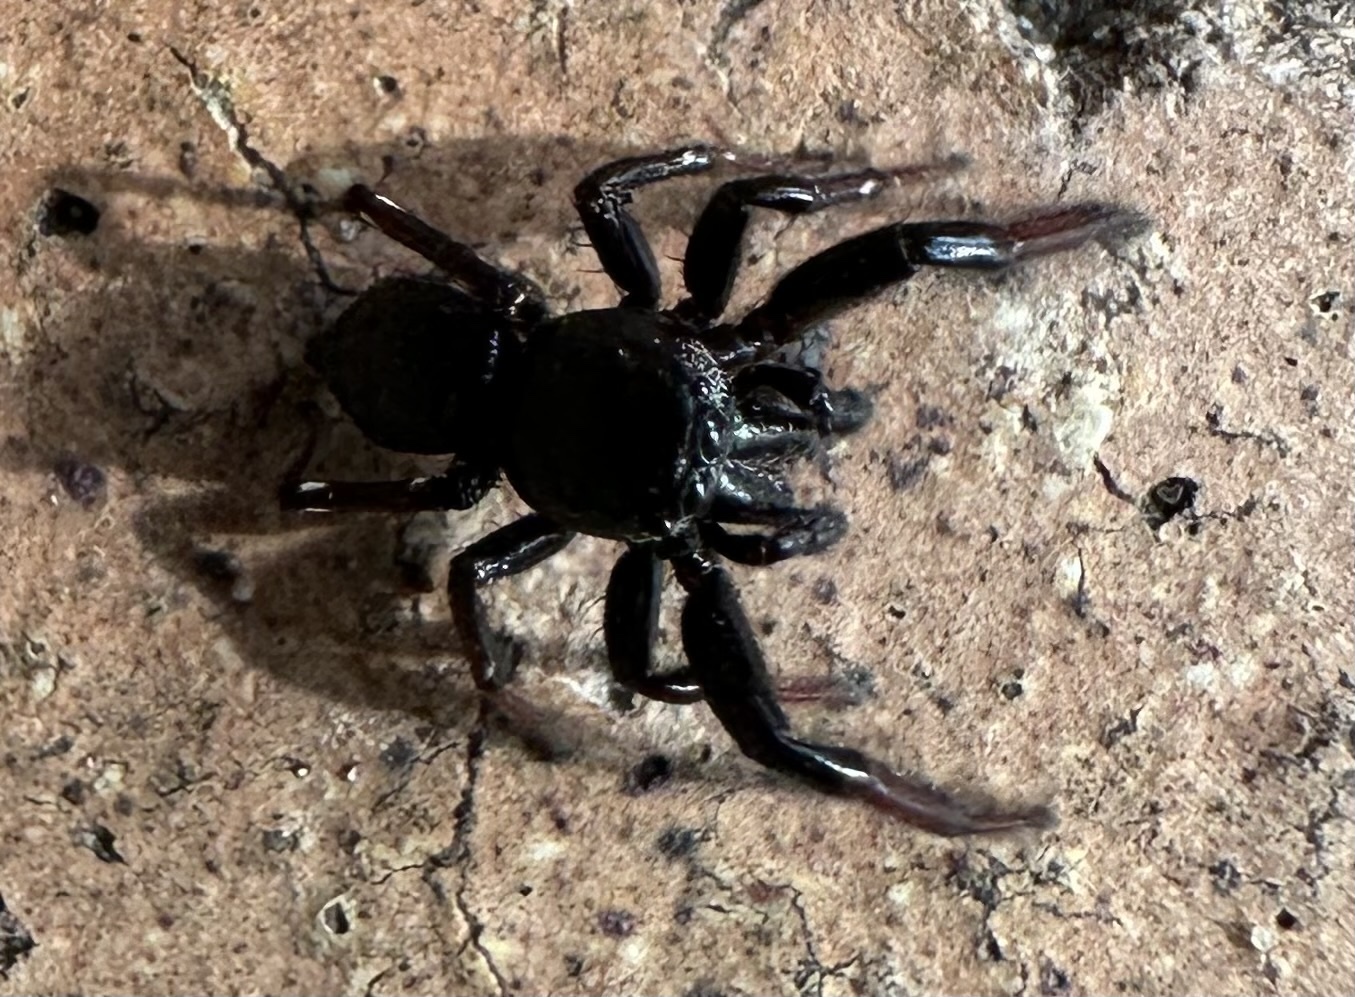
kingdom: Animalia
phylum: Arthropoda
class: Arachnida
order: Araneae
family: Salticidae
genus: Heliophanus
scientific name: Heliophanus
